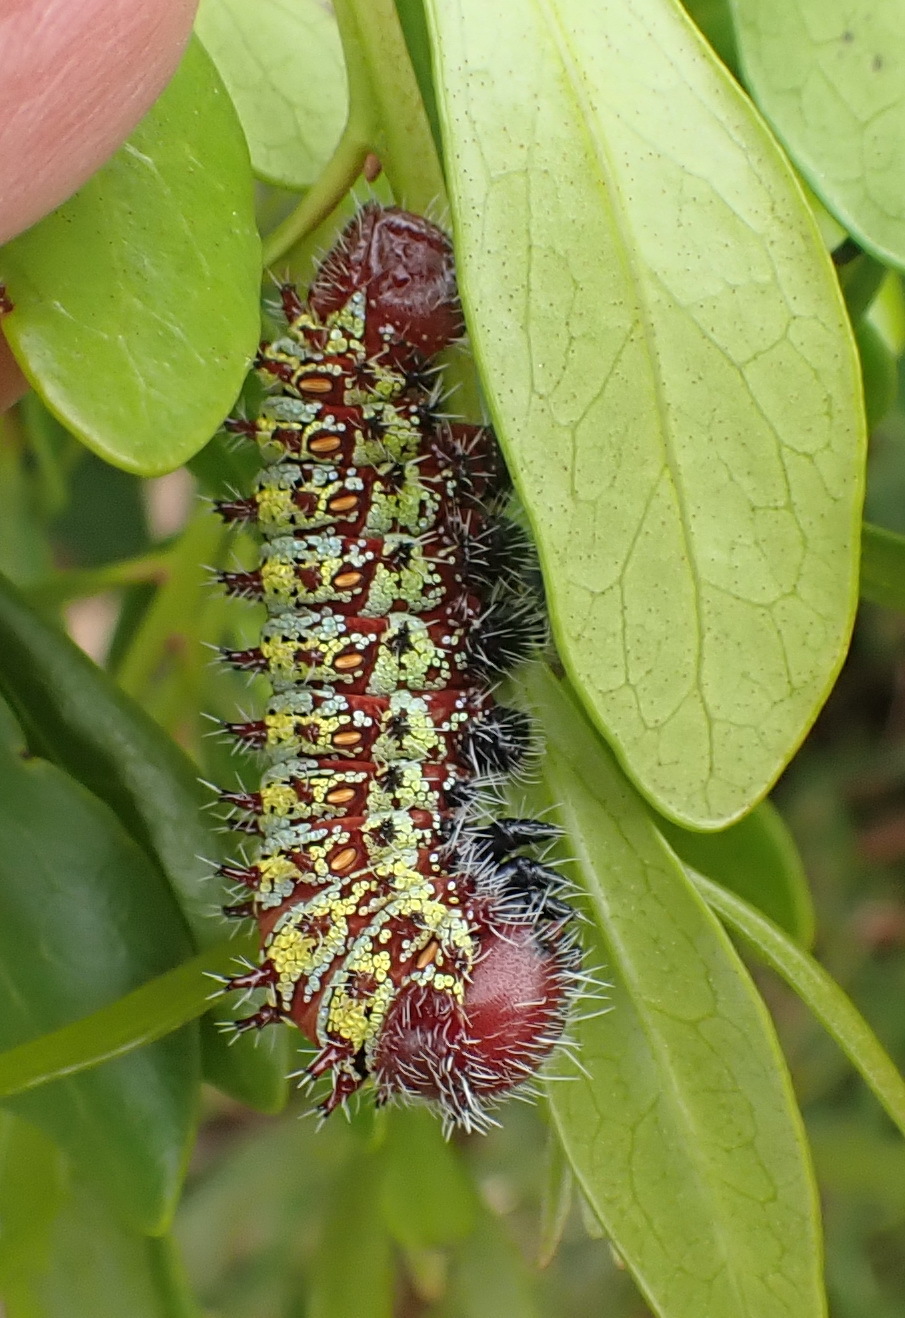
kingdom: Animalia
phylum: Arthropoda
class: Insecta
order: Lepidoptera
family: Saturniidae
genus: Nudaurelia
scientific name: Nudaurelia cytherea
